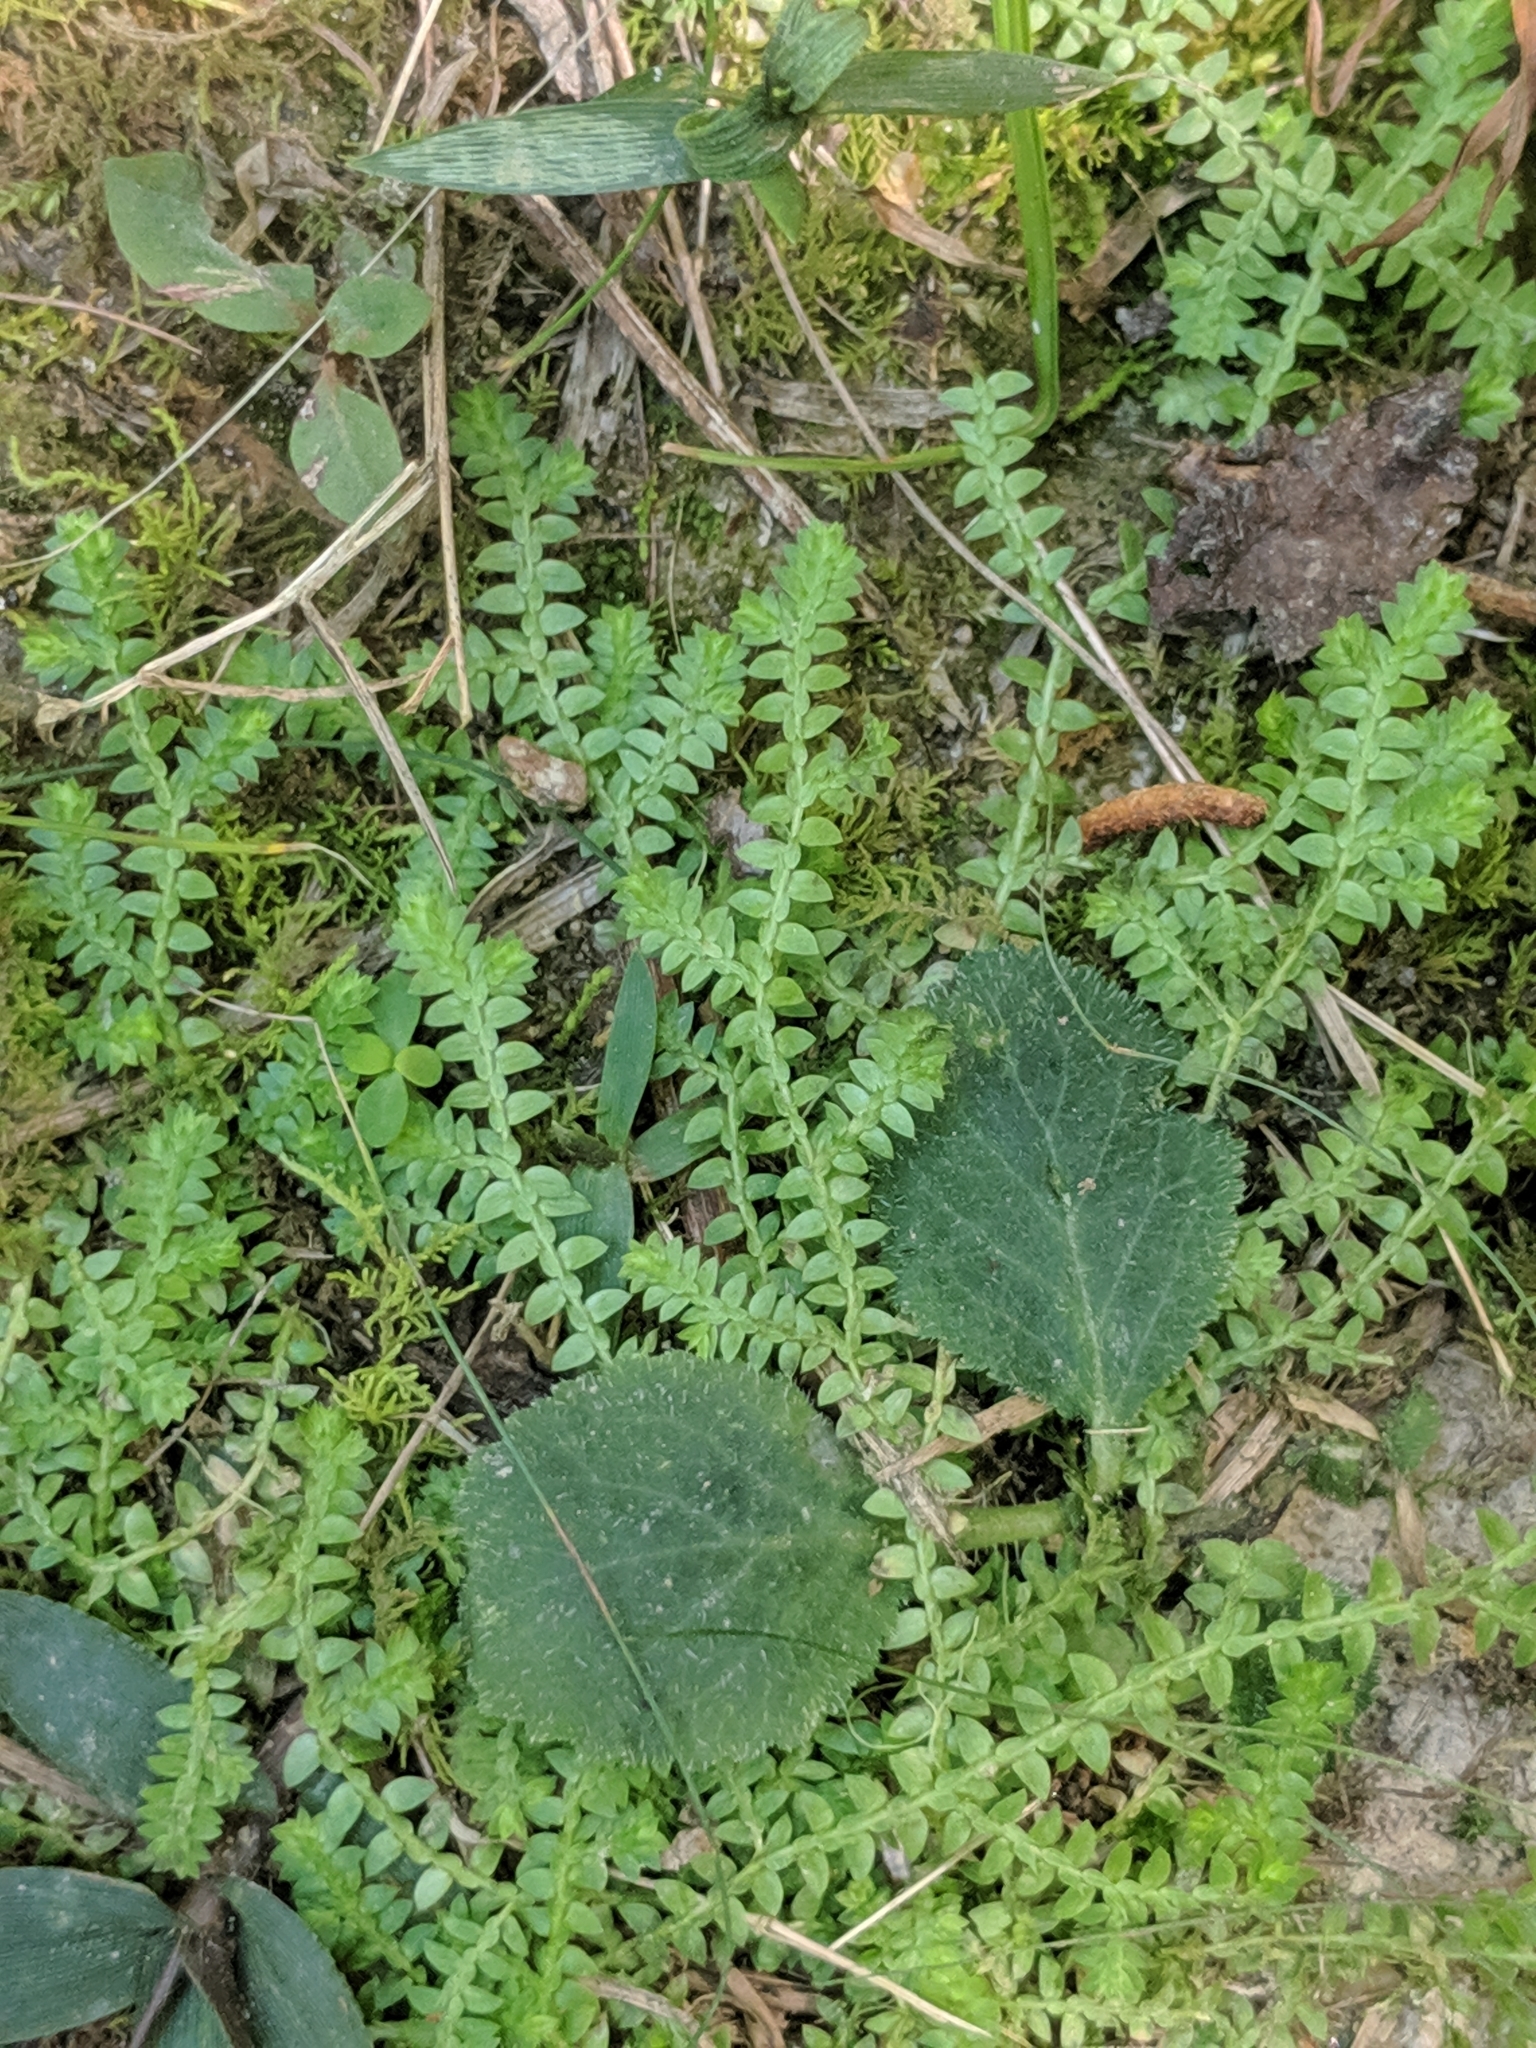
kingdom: Plantae
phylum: Tracheophyta
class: Lycopodiopsida
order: Selaginellales
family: Selaginellaceae
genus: Selaginella
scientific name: Selaginella apoda
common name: Creeping spikemoss
